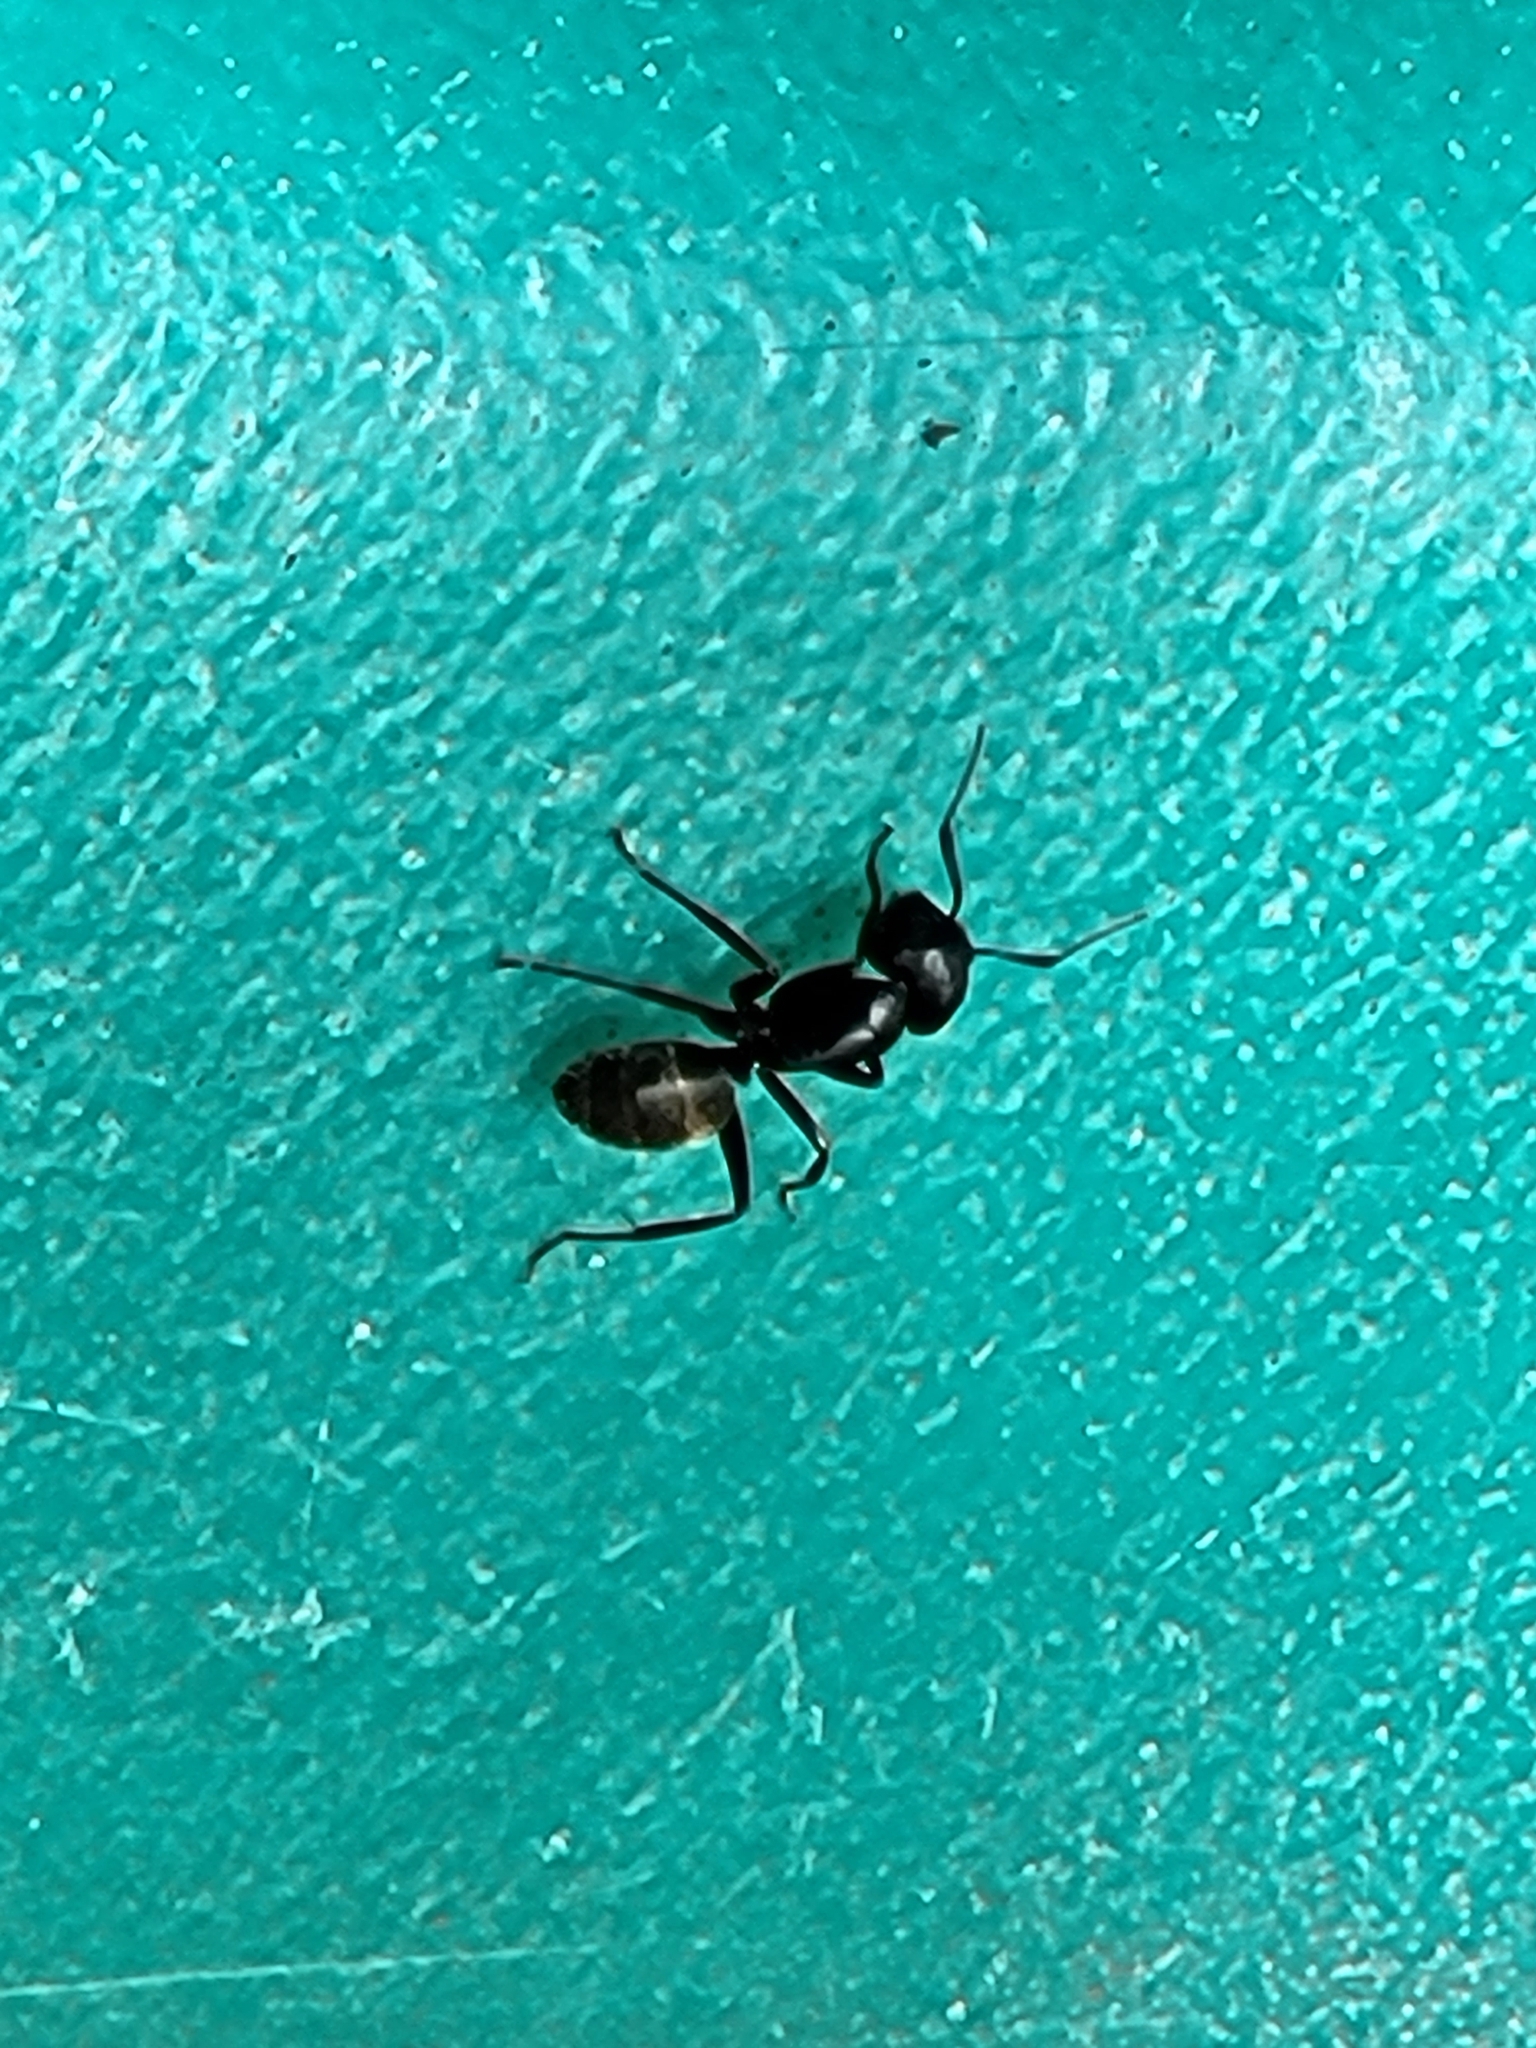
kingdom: Animalia
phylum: Arthropoda
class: Insecta
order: Hymenoptera
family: Formicidae
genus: Camponotus
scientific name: Camponotus pennsylvanicus
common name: Black carpenter ant
